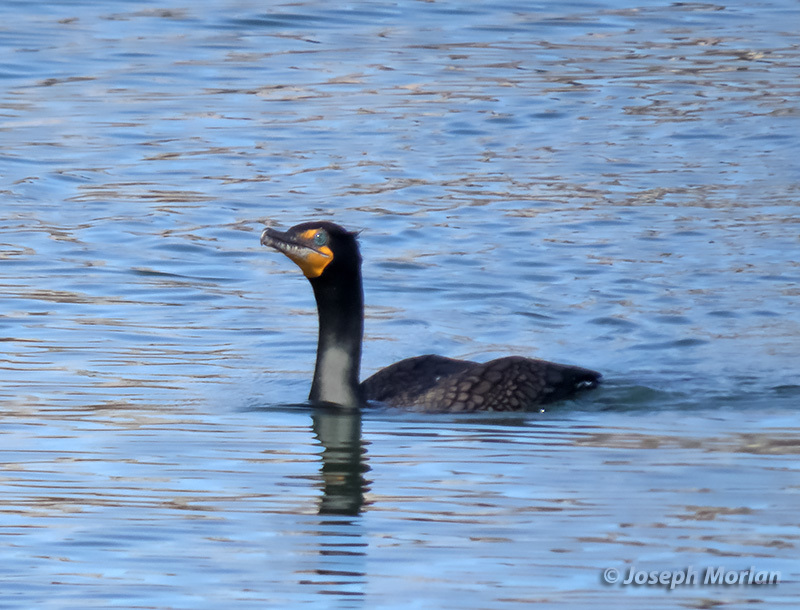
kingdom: Animalia
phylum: Chordata
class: Aves
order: Suliformes
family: Phalacrocoracidae
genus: Phalacrocorax
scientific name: Phalacrocorax auritus
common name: Double-crested cormorant
